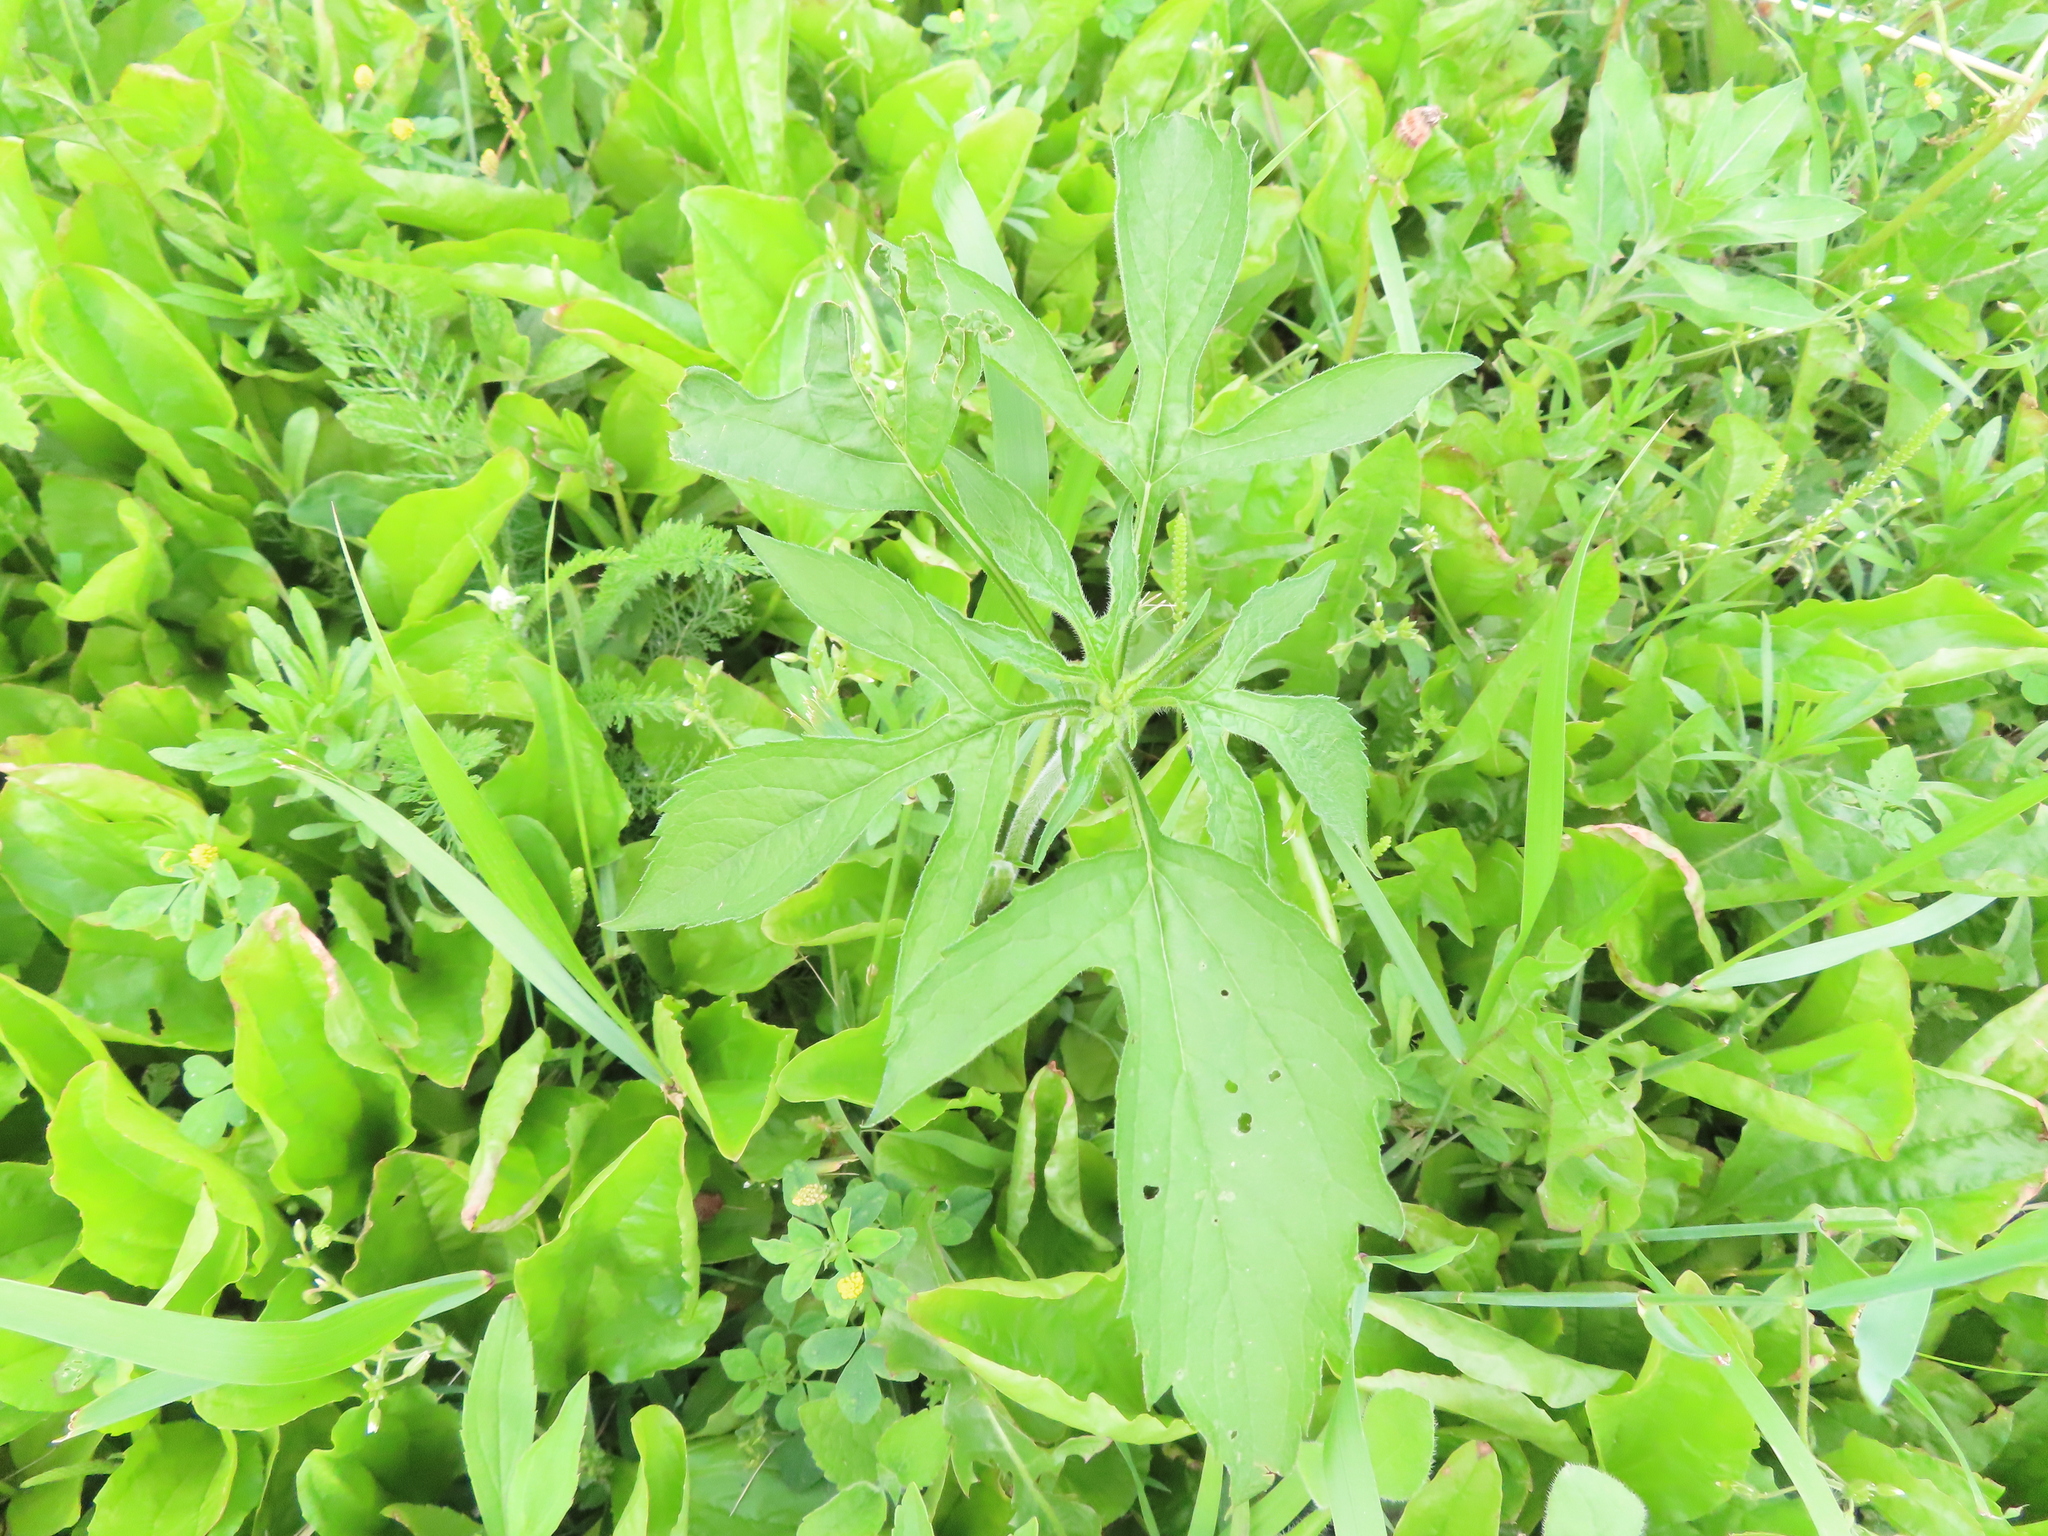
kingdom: Plantae
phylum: Tracheophyta
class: Magnoliopsida
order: Asterales
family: Asteraceae
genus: Ambrosia
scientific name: Ambrosia trifida
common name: Giant ragweed
